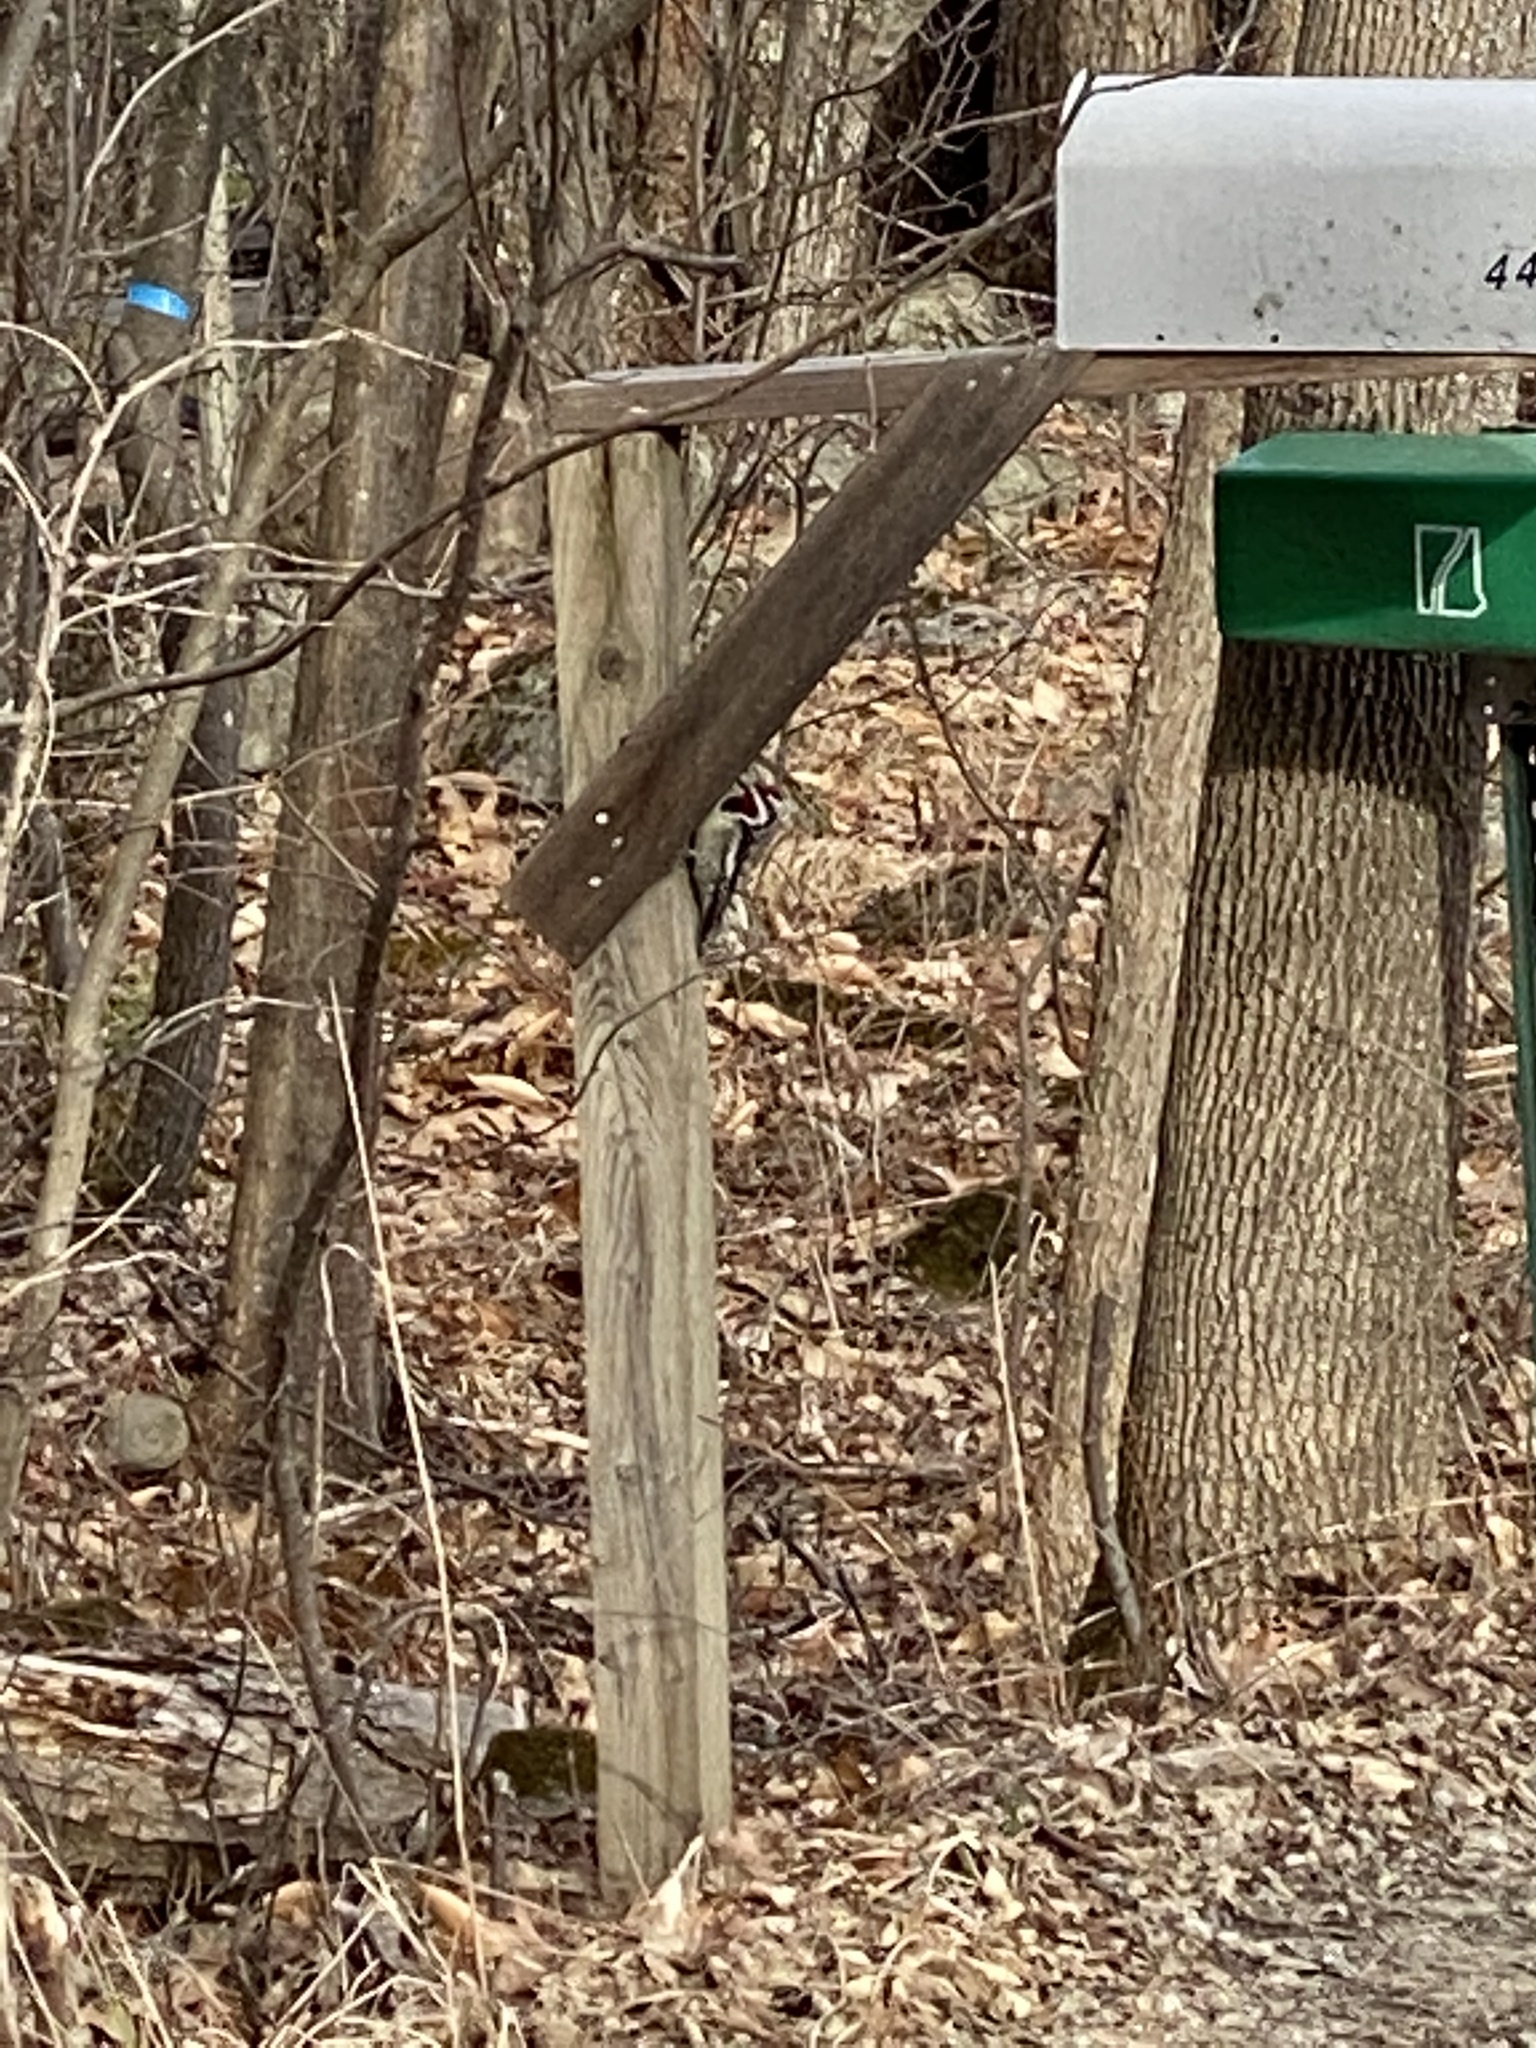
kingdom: Animalia
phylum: Chordata
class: Aves
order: Piciformes
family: Picidae
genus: Sphyrapicus
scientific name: Sphyrapicus varius
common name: Yellow-bellied sapsucker
